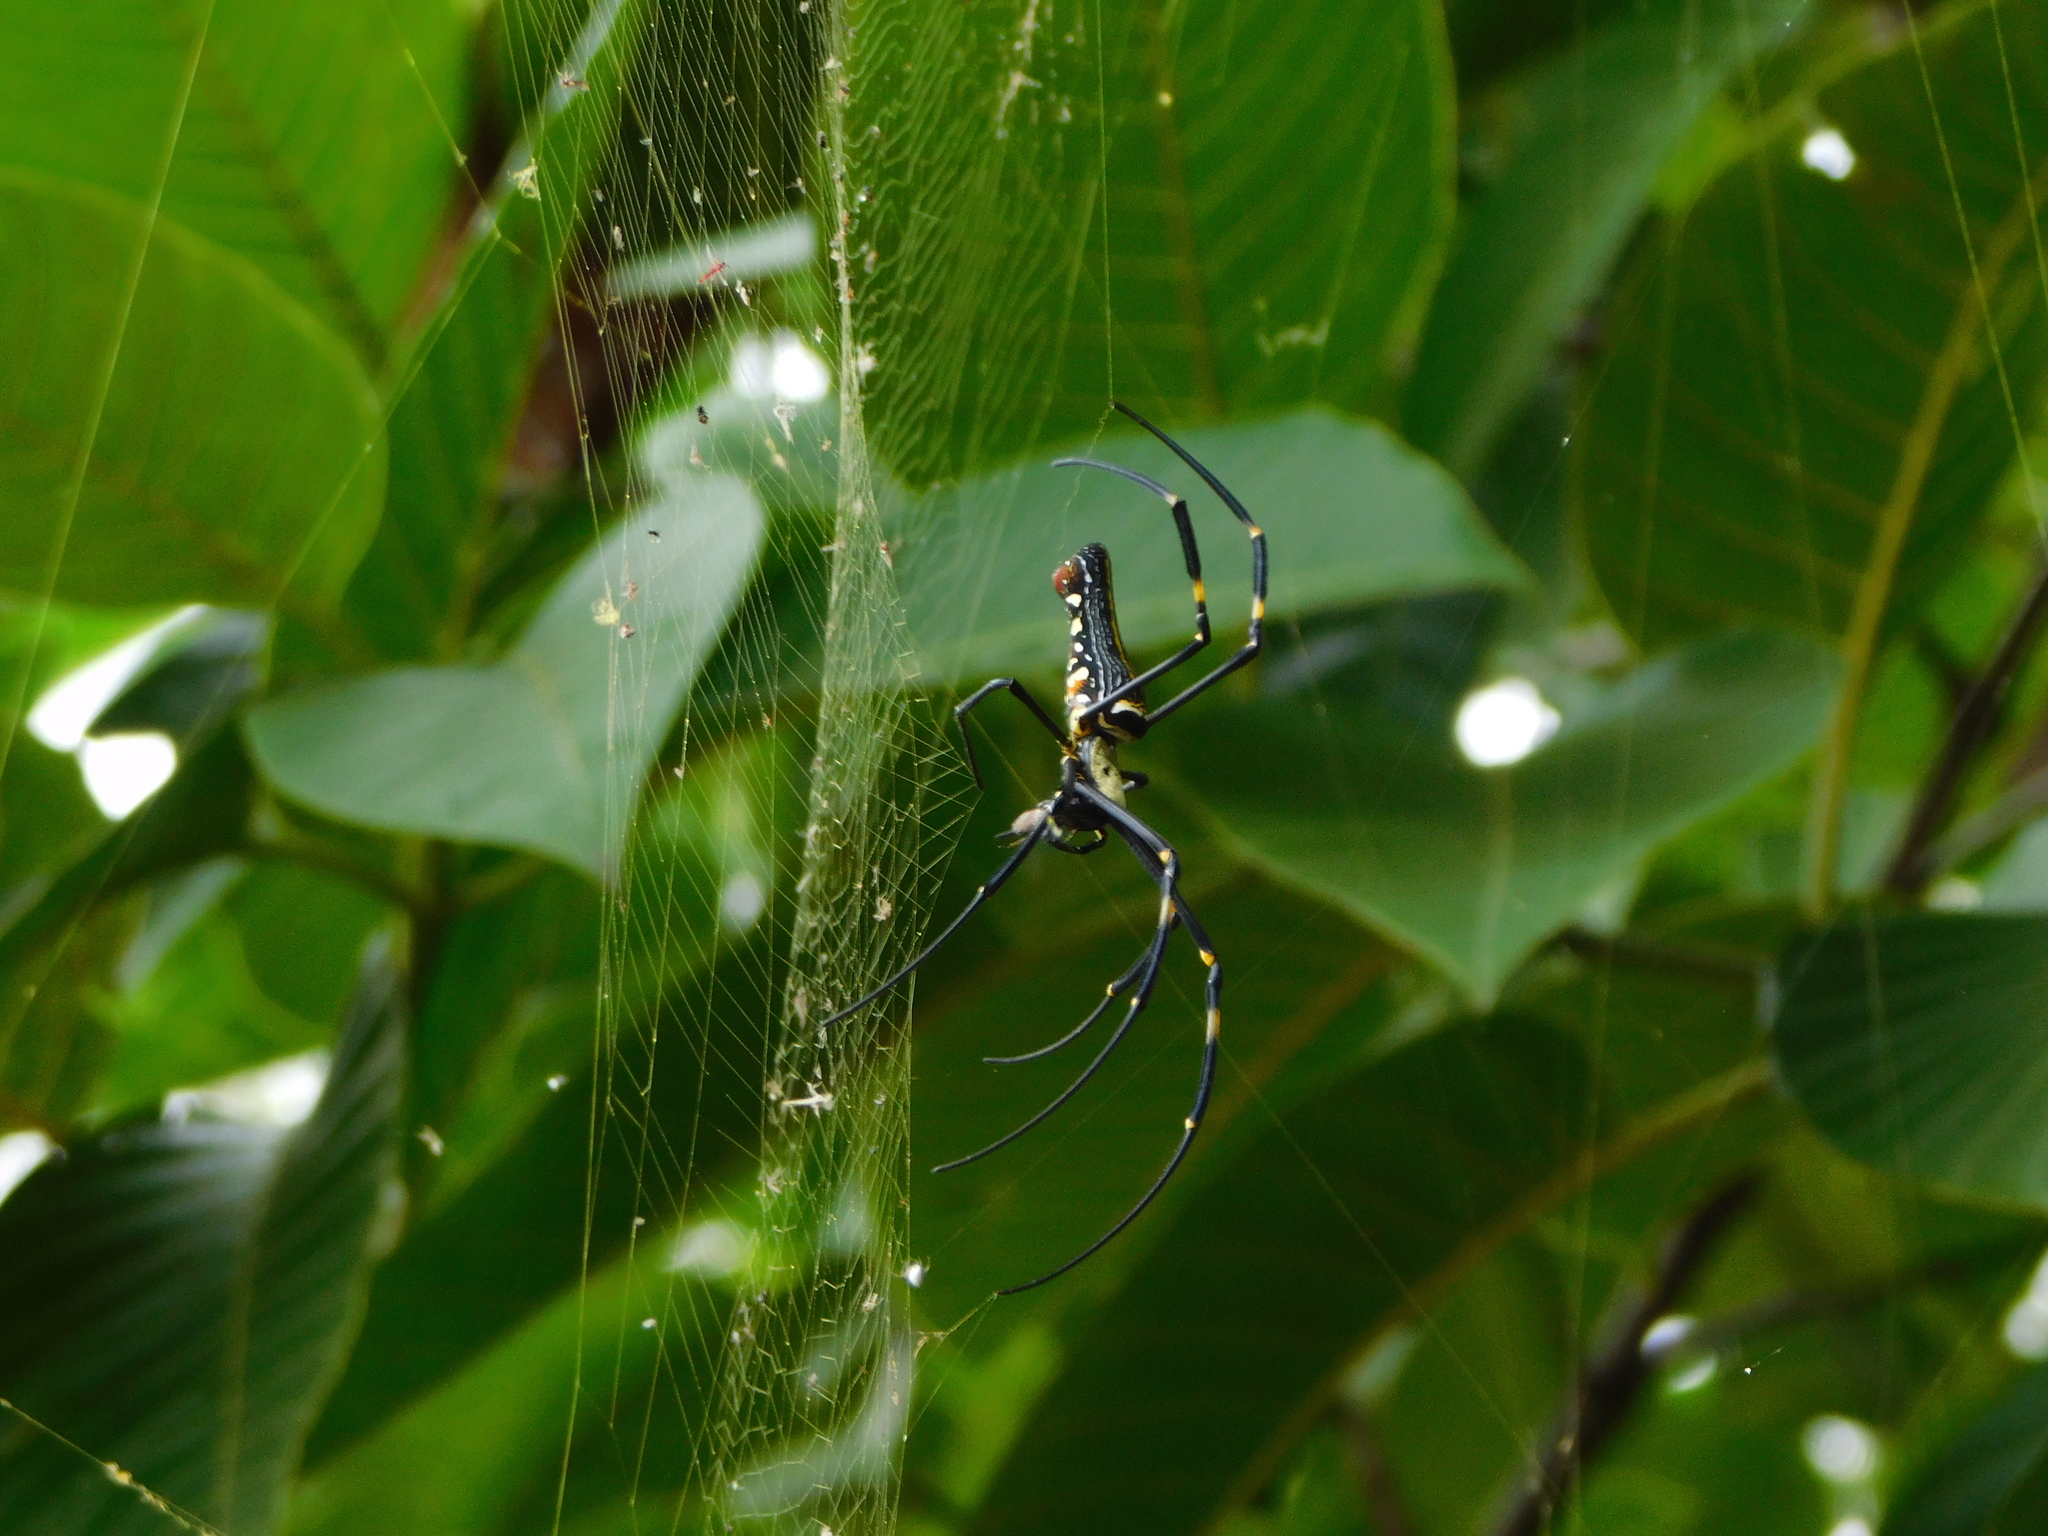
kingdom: Animalia
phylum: Arthropoda
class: Arachnida
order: Araneae
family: Araneidae
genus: Nephila
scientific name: Nephila pilipes
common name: Giant golden orb weaver
